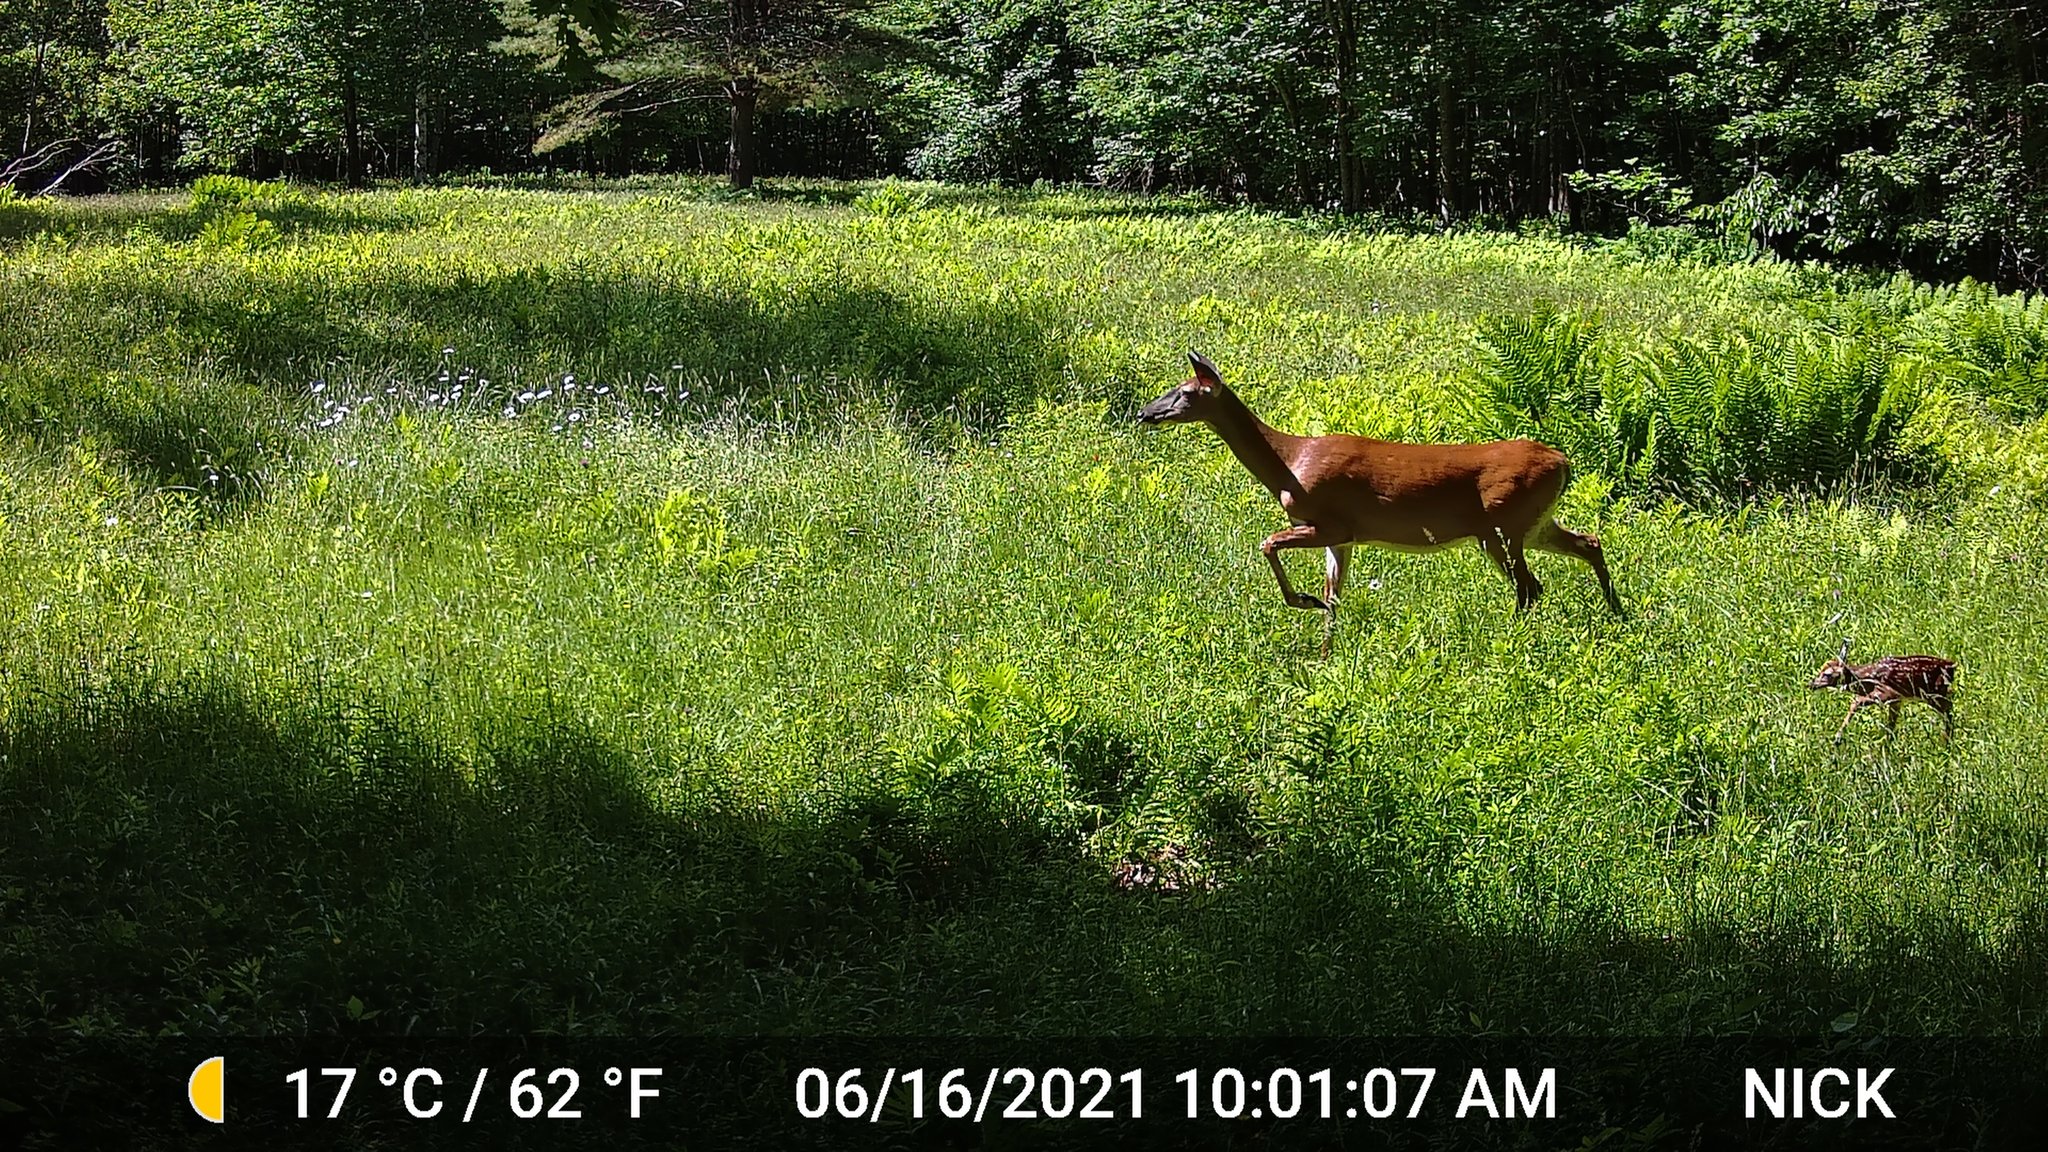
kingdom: Animalia
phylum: Chordata
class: Mammalia
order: Artiodactyla
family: Cervidae
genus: Odocoileus
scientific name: Odocoileus virginianus
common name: White-tailed deer
